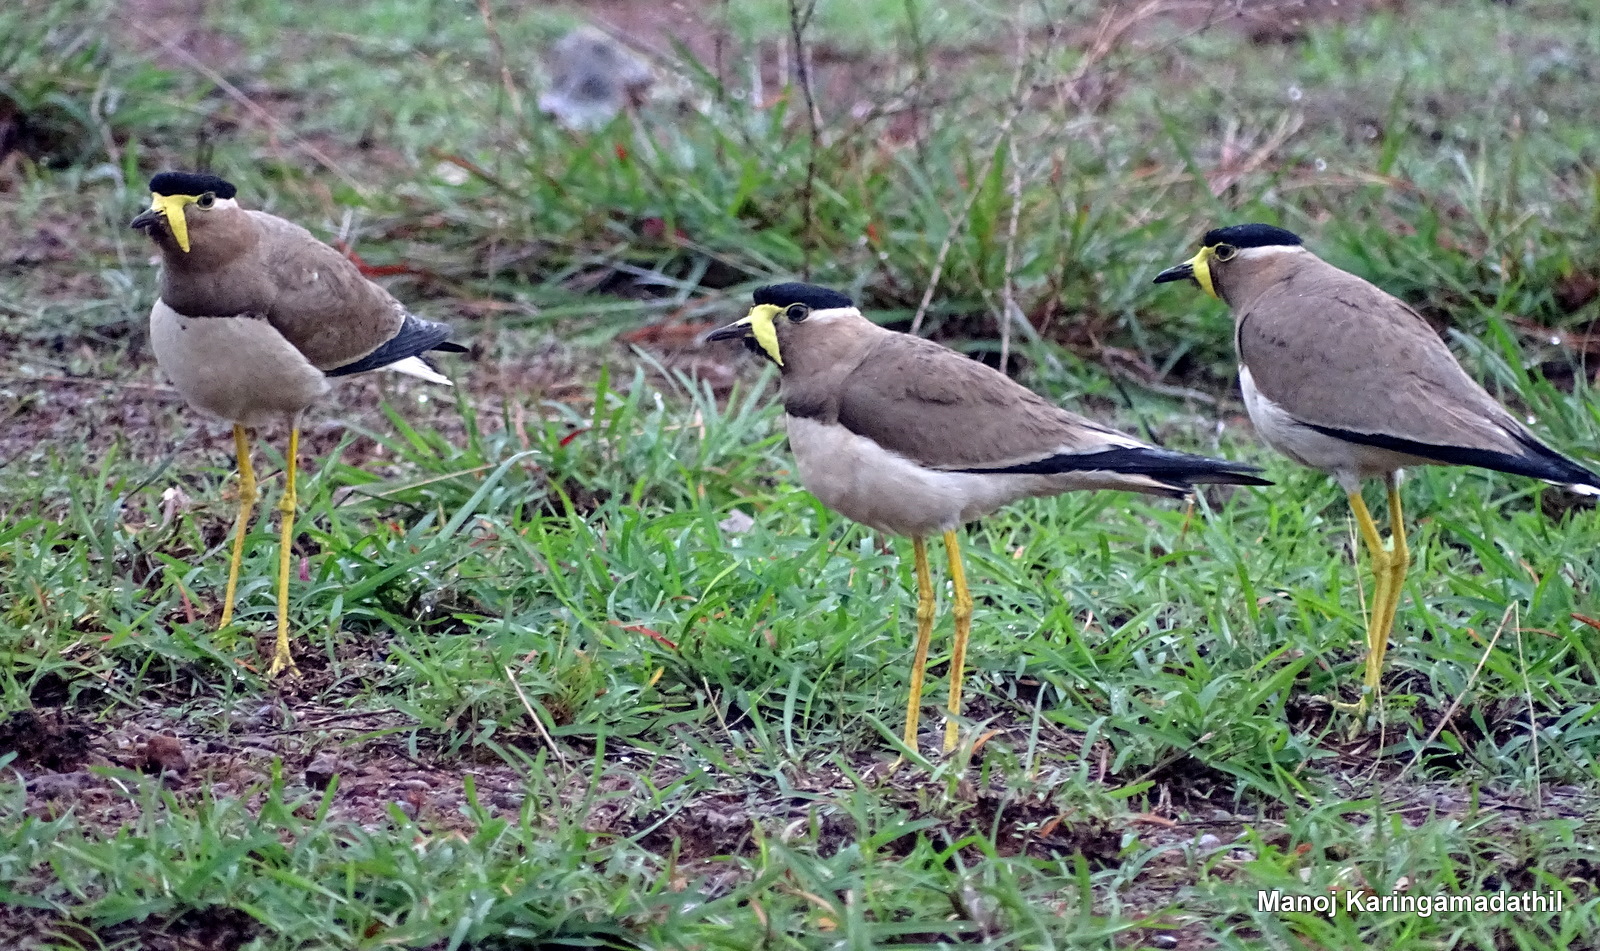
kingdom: Animalia
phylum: Chordata
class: Aves
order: Charadriiformes
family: Charadriidae
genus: Vanellus
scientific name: Vanellus malabaricus
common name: Yellow-wattled lapwing
